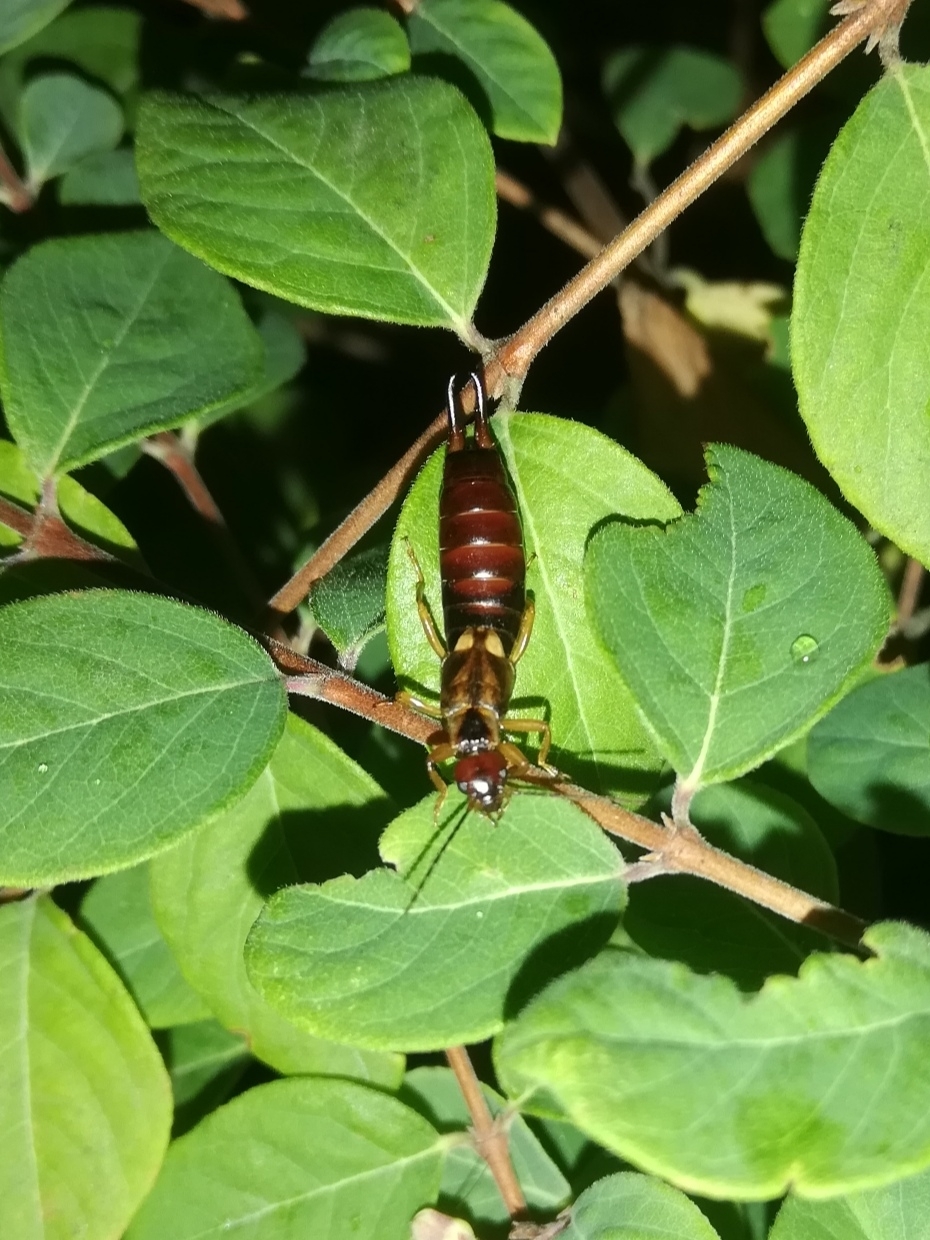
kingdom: Animalia
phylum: Arthropoda
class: Insecta
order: Dermaptera
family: Forficulidae
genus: Forficula
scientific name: Forficula
